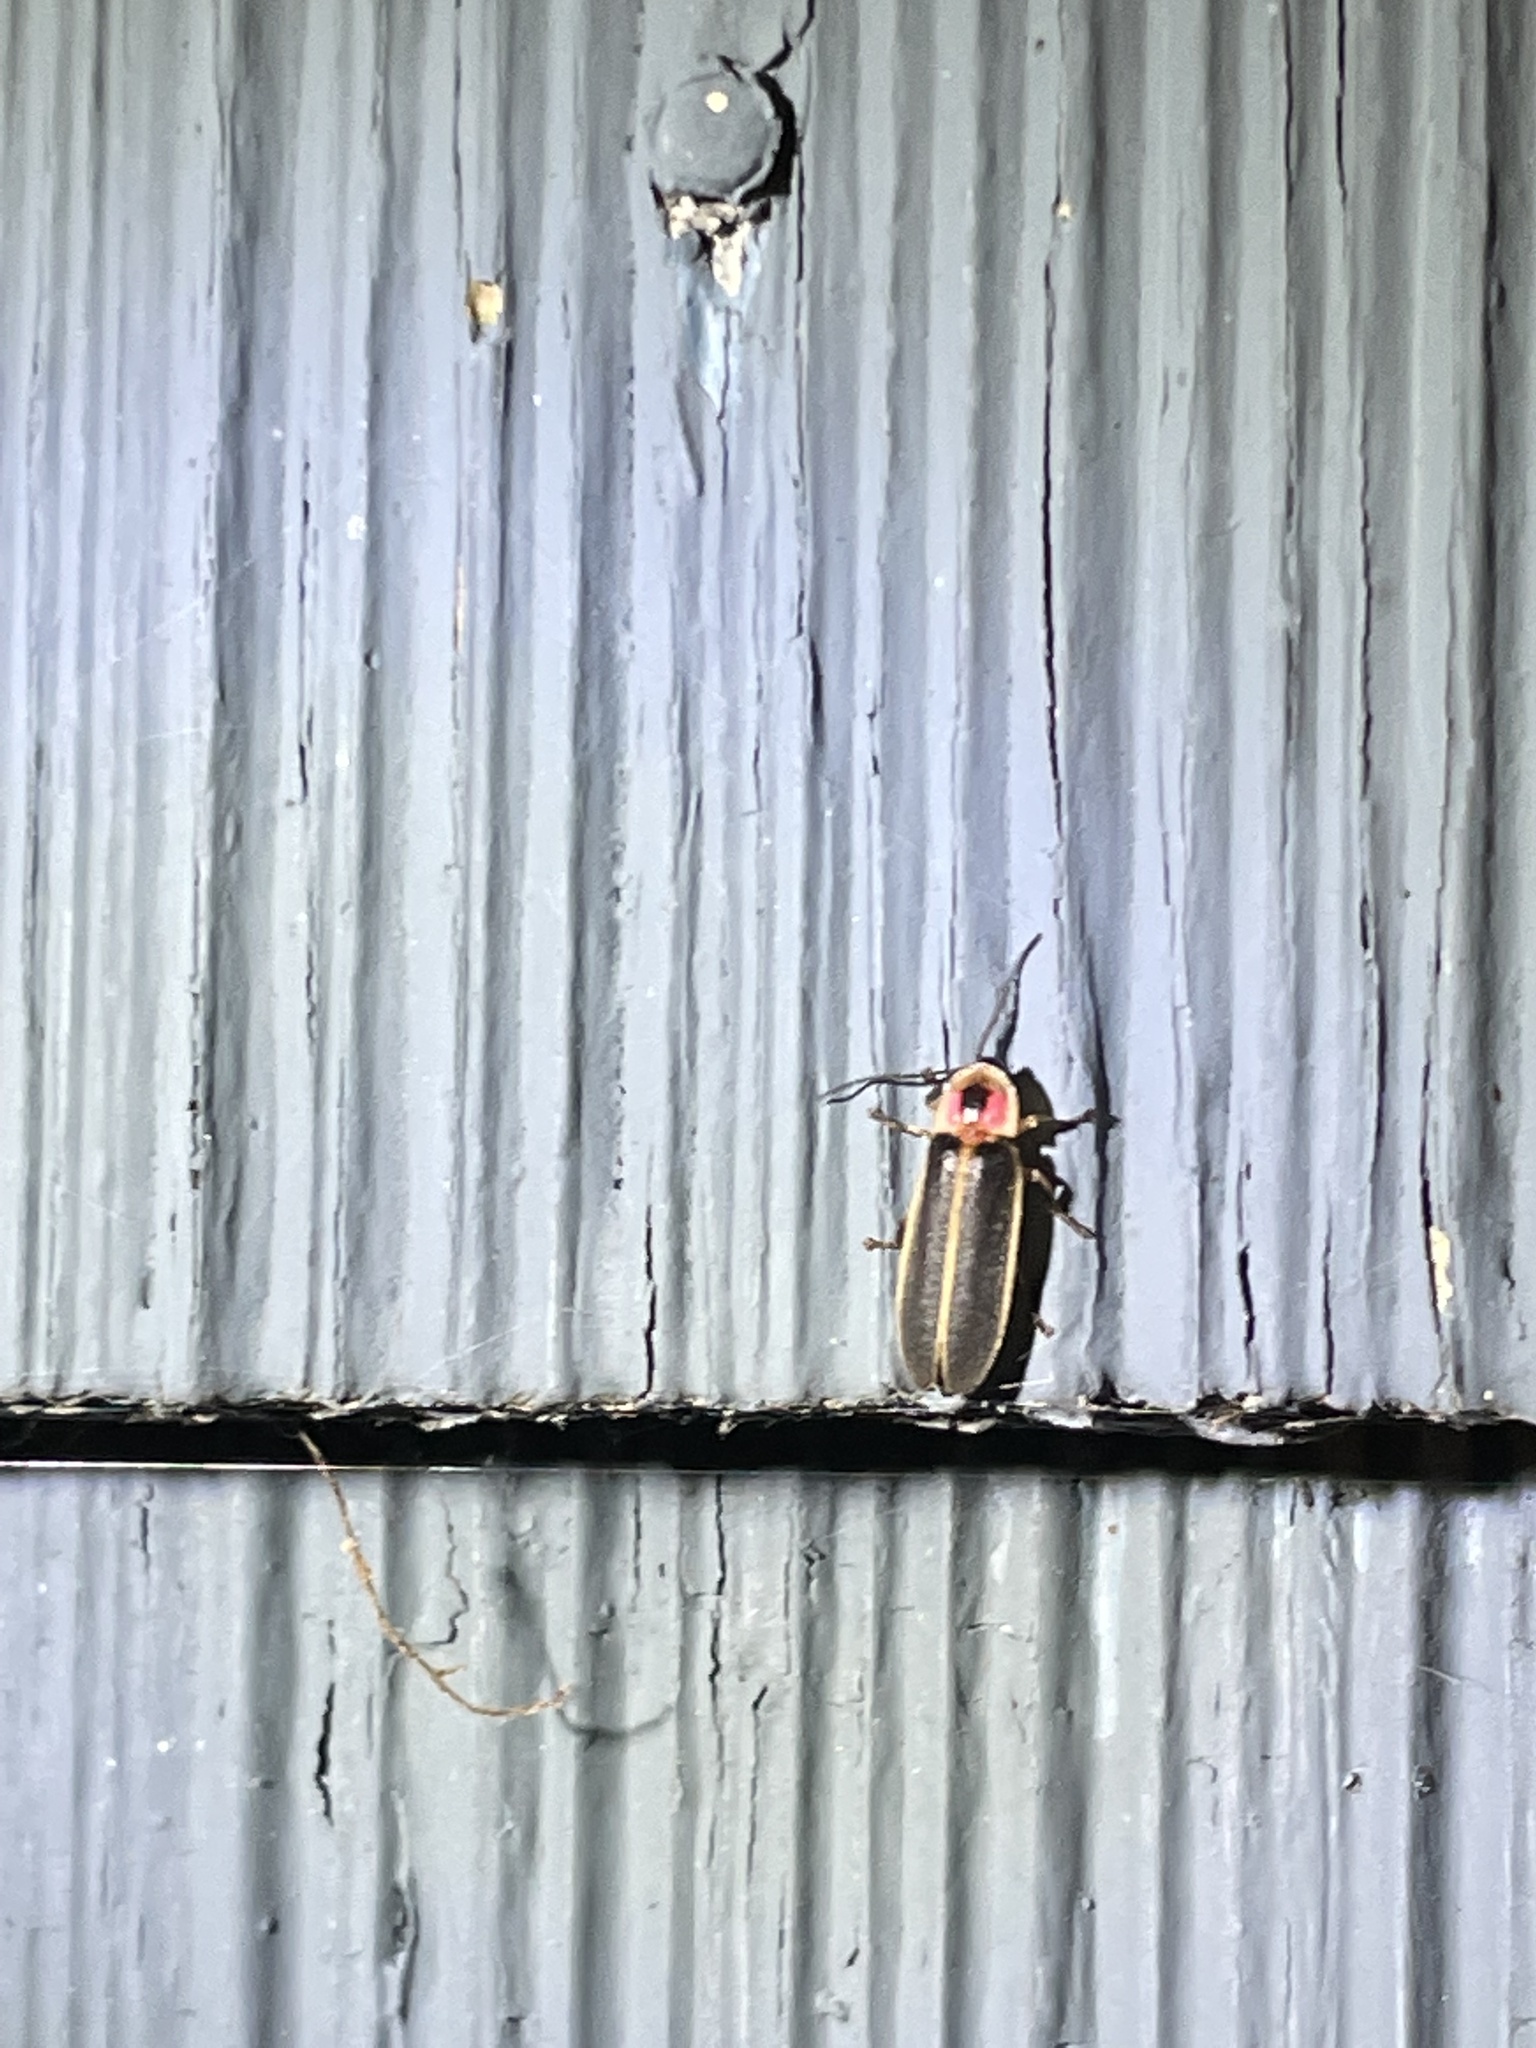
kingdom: Animalia
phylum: Arthropoda
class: Insecta
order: Coleoptera
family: Lampyridae
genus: Photinus
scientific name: Photinus pyralis
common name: Big dipper firefly
